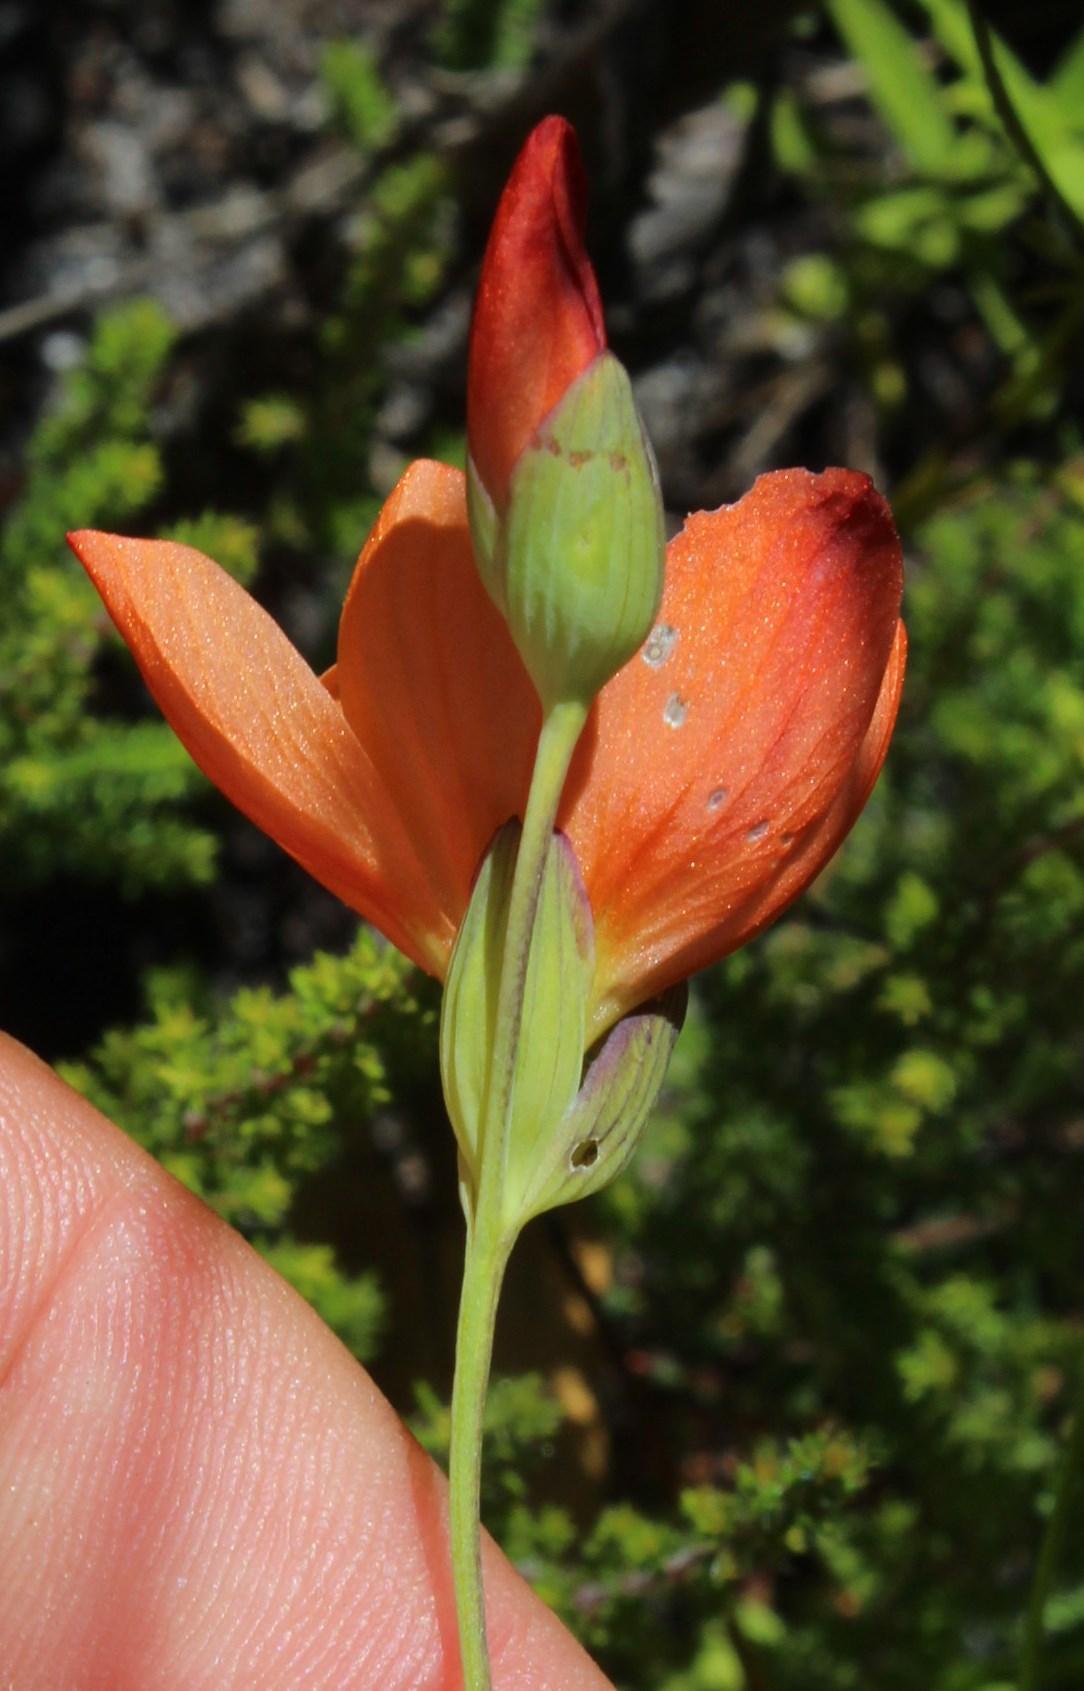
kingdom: Plantae
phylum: Tracheophyta
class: Liliopsida
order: Asparagales
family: Iridaceae
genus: Gladiolus
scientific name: Gladiolus brevitubus
